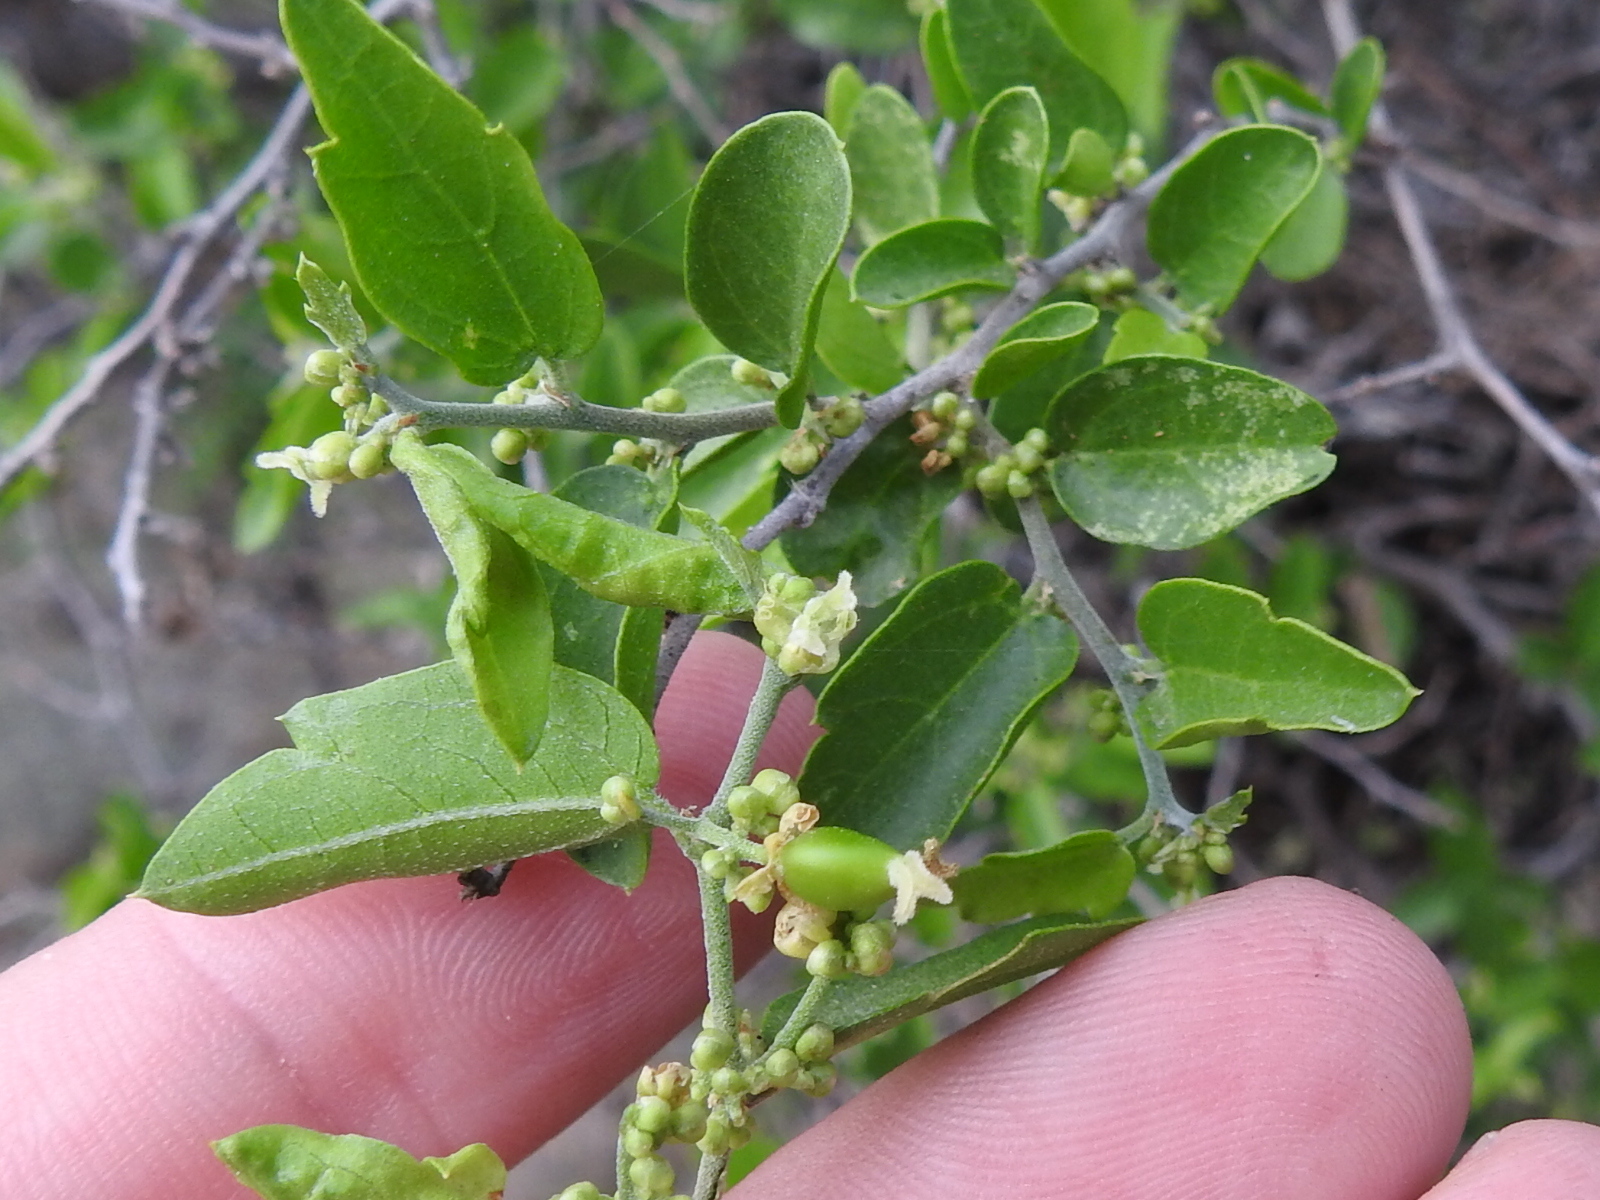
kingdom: Plantae
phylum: Tracheophyta
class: Magnoliopsida
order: Rosales
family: Cannabaceae
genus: Celtis
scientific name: Celtis pallida
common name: Desert hackberry
